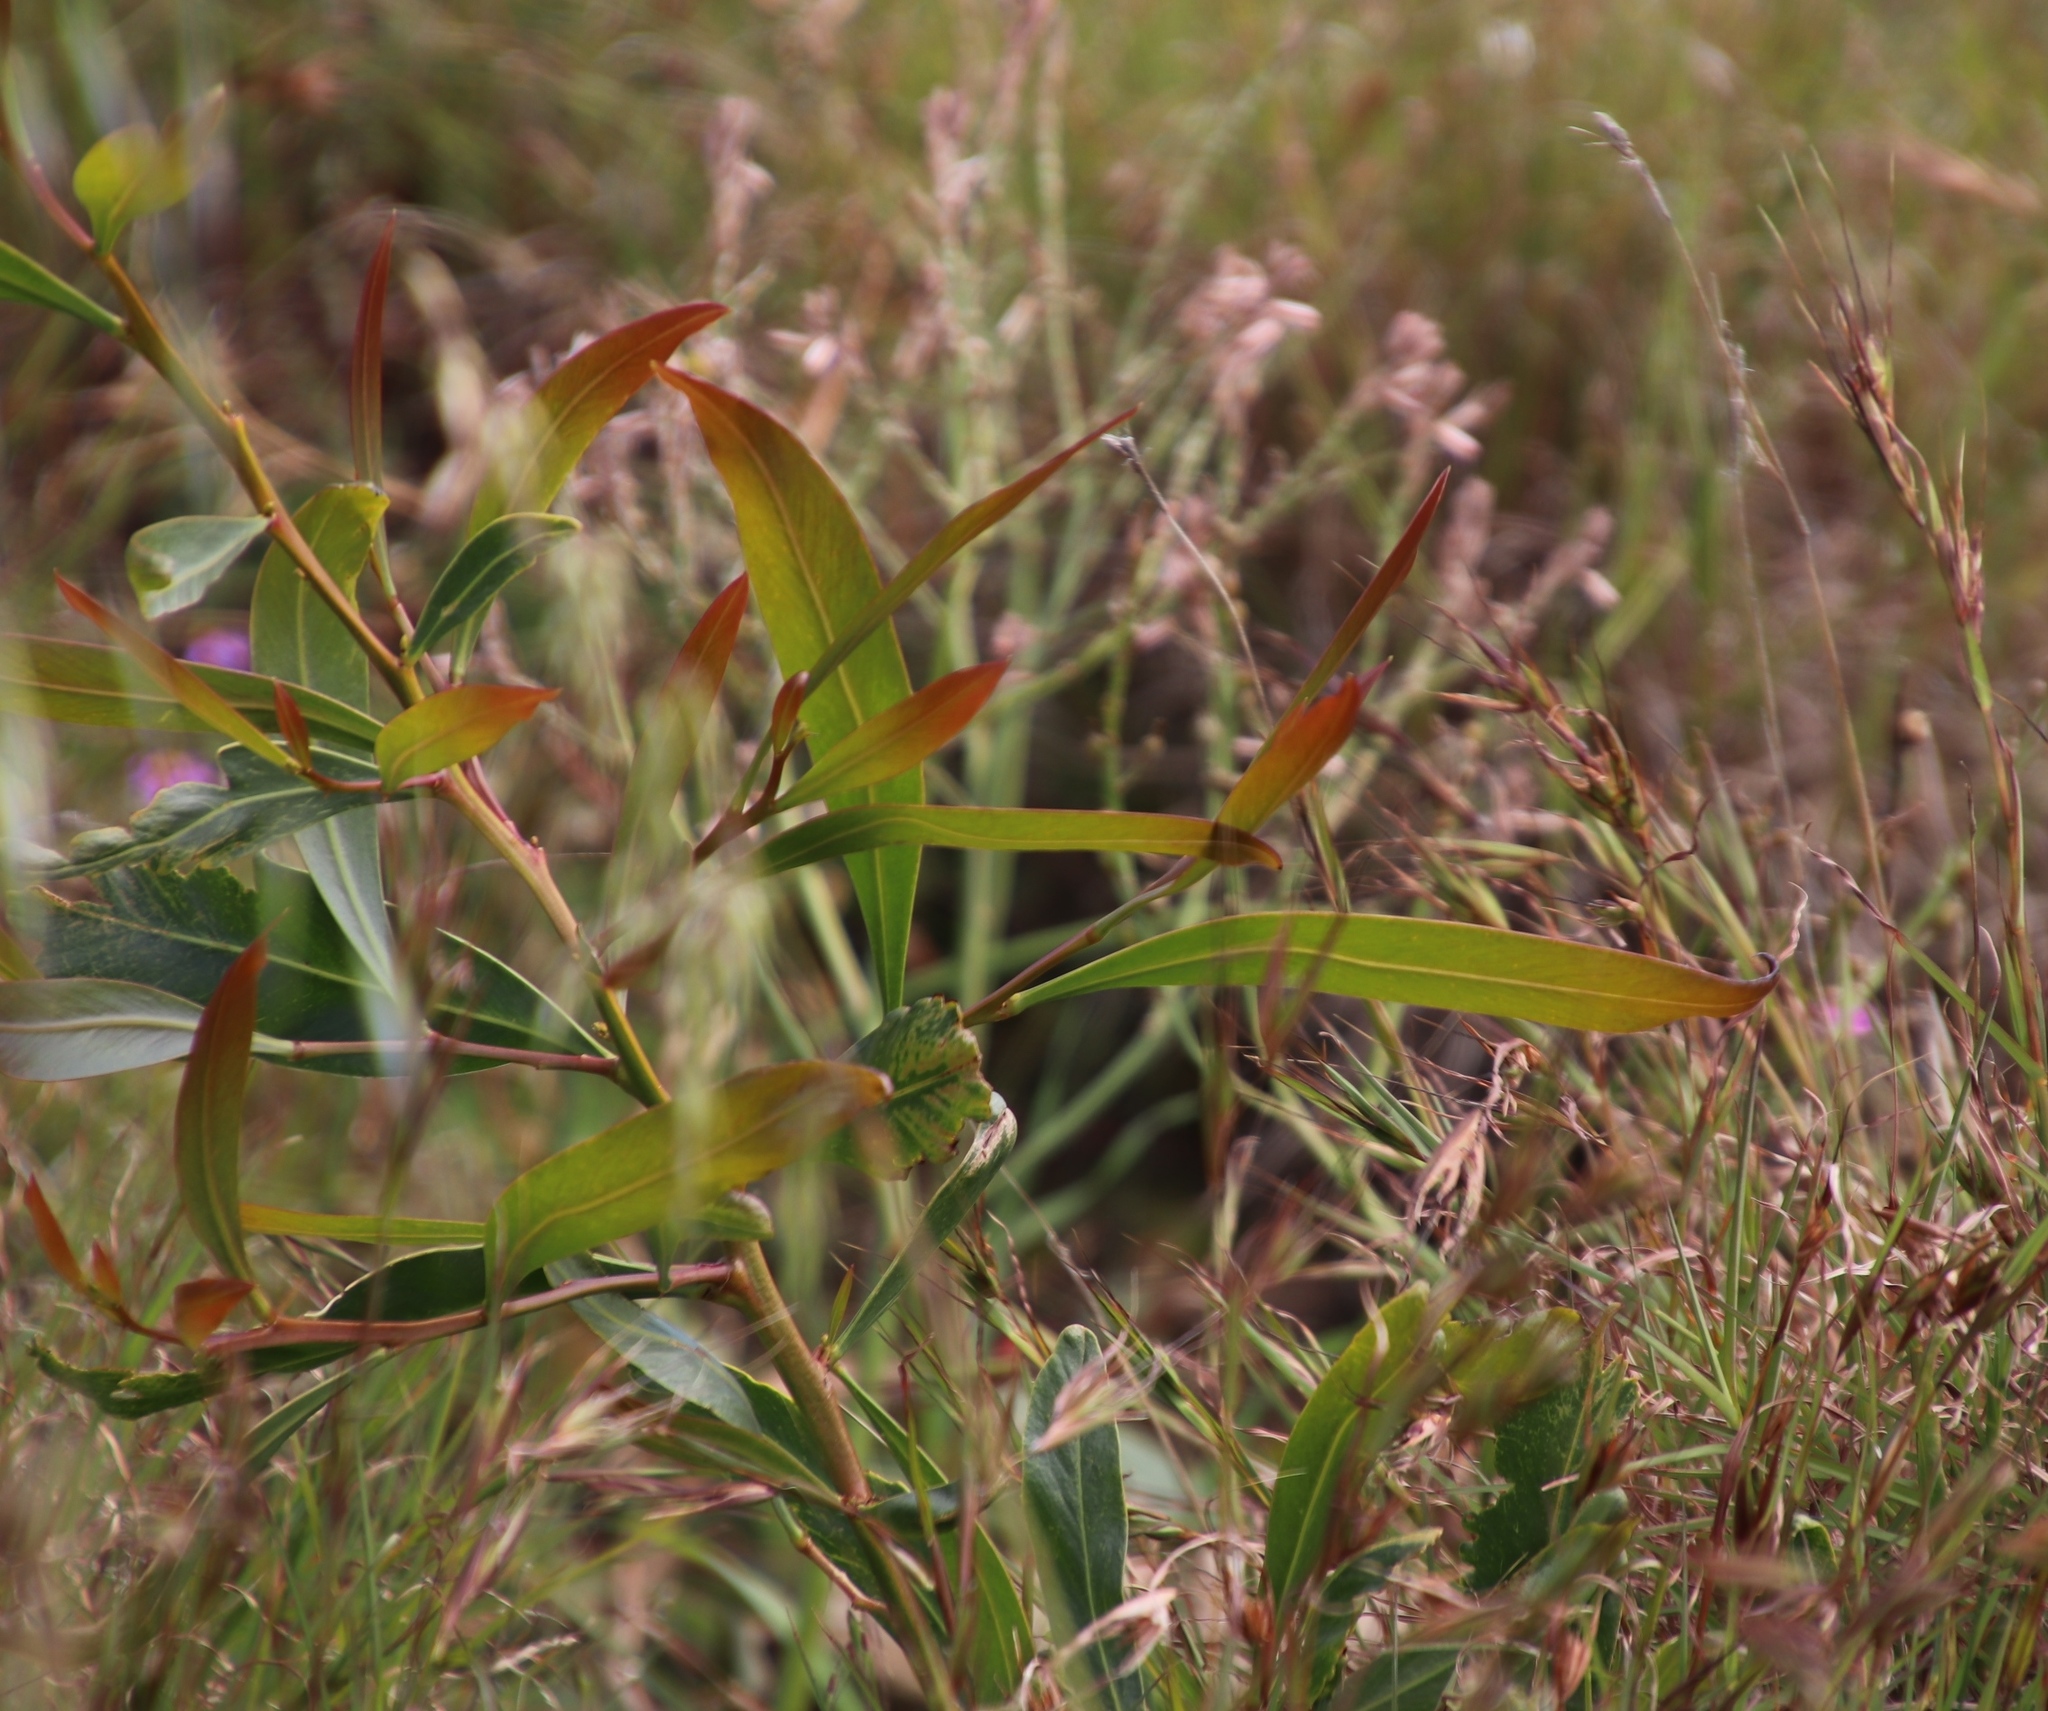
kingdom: Plantae
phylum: Tracheophyta
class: Magnoliopsida
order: Fabales
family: Fabaceae
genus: Acacia
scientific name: Acacia saligna
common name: Orange wattle
